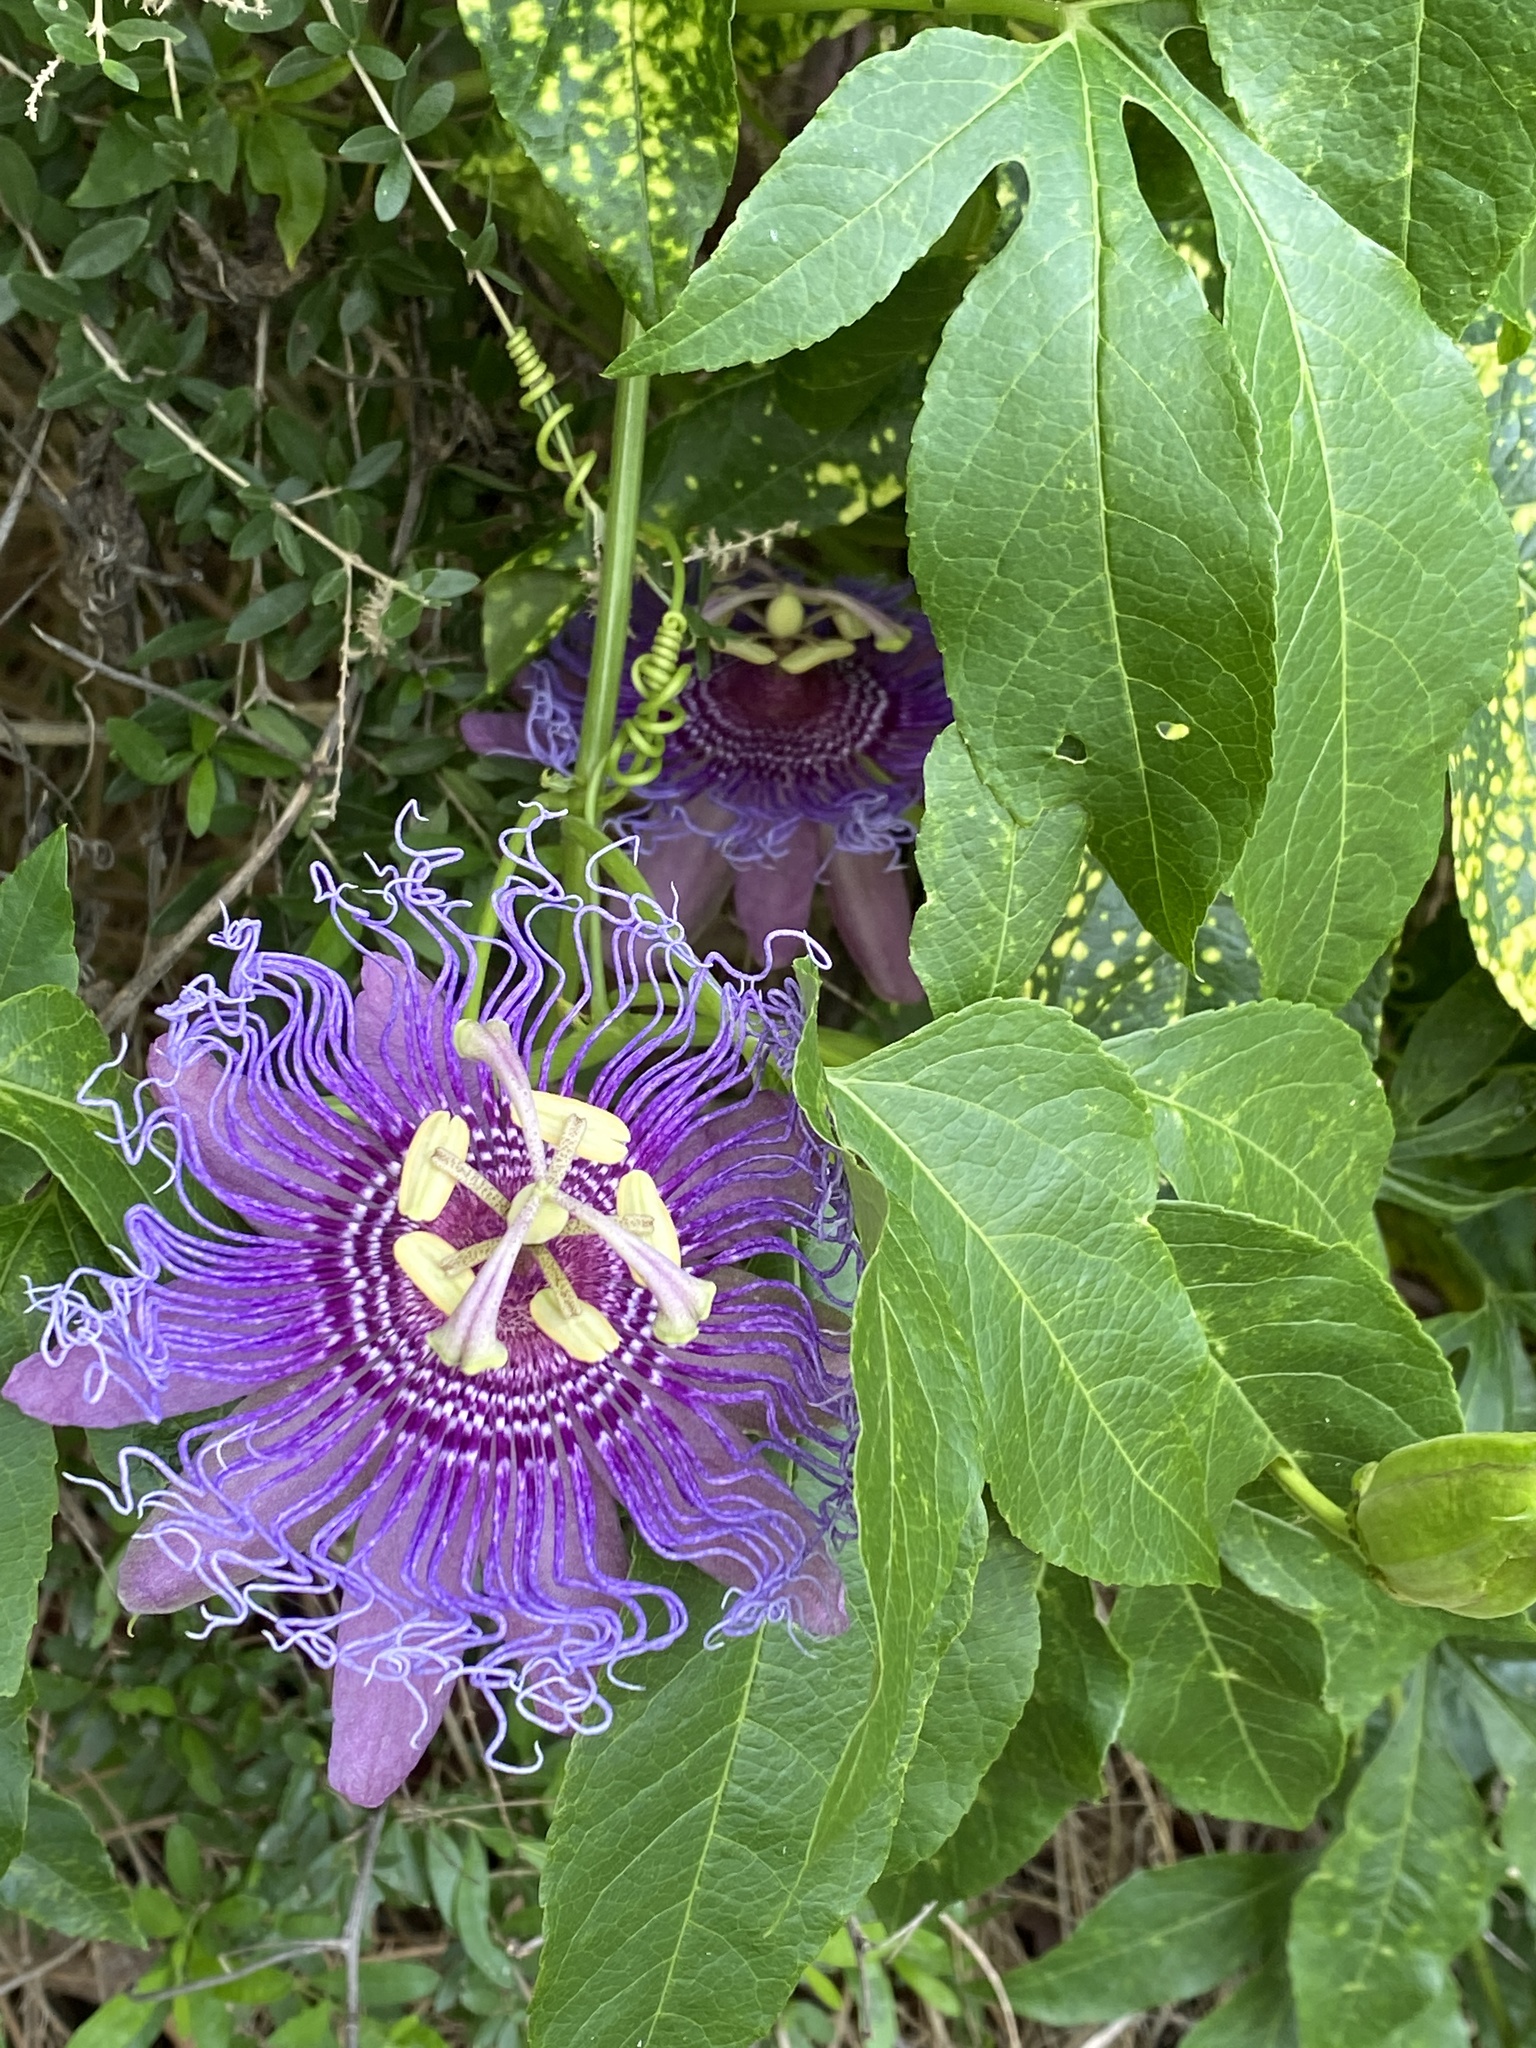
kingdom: Plantae
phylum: Tracheophyta
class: Magnoliopsida
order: Malpighiales
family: Passifloraceae
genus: Passiflora
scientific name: Passiflora
